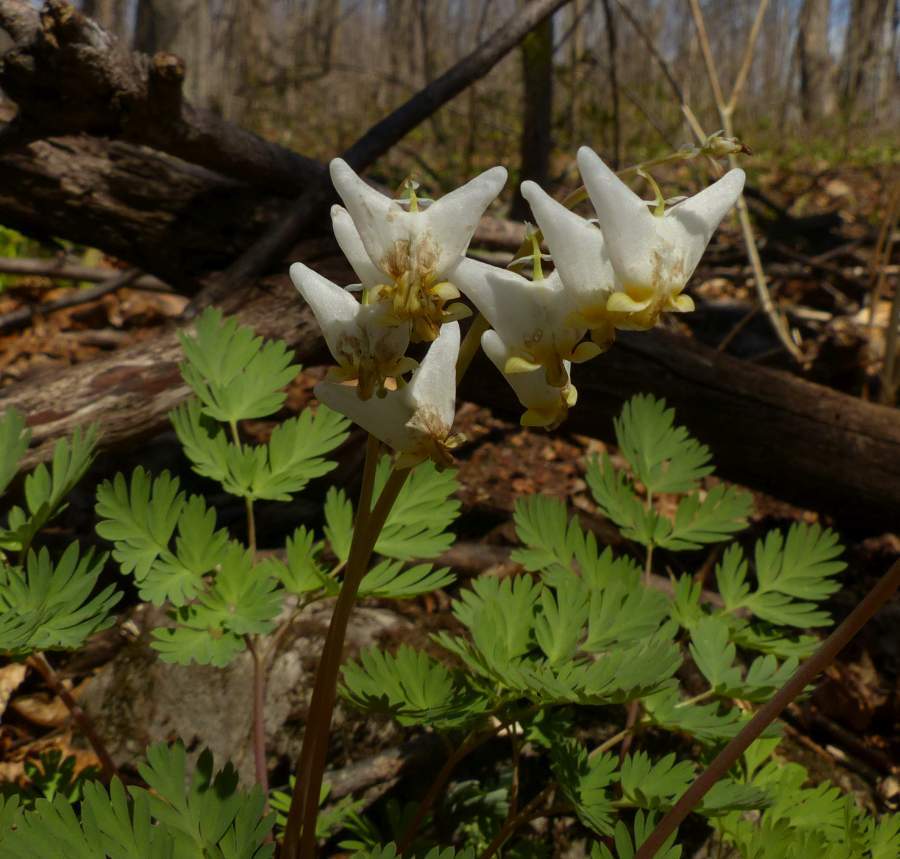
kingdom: Plantae
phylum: Tracheophyta
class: Magnoliopsida
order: Ranunculales
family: Papaveraceae
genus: Dicentra
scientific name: Dicentra cucullaria
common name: Dutchman's breeches
